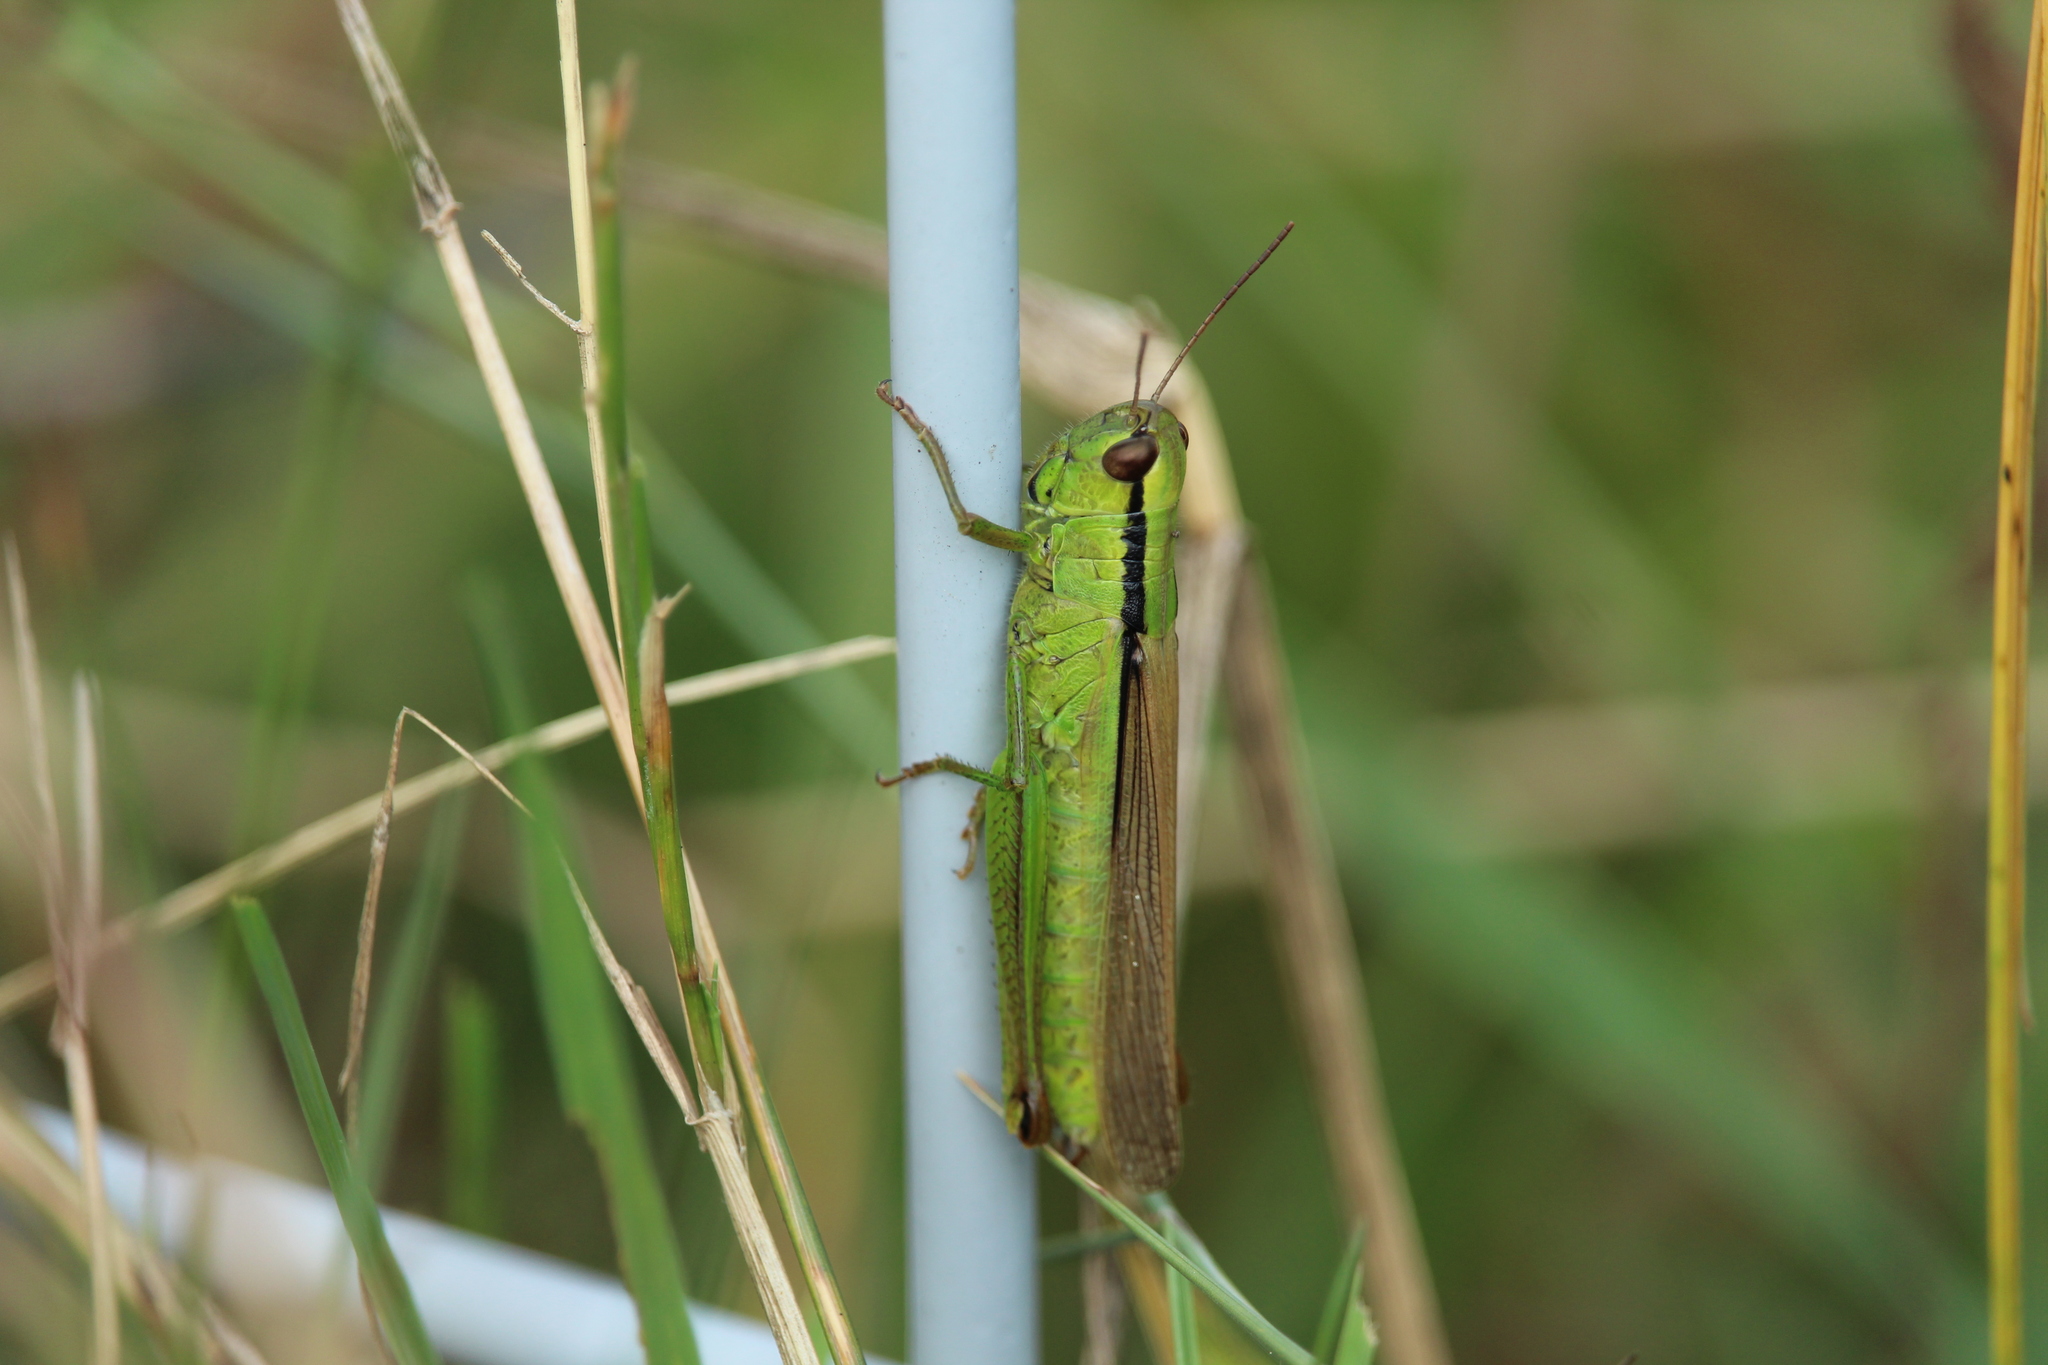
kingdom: Animalia
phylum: Arthropoda
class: Insecta
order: Orthoptera
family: Acrididae
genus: Mecostethus
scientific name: Mecostethus parapleurus
